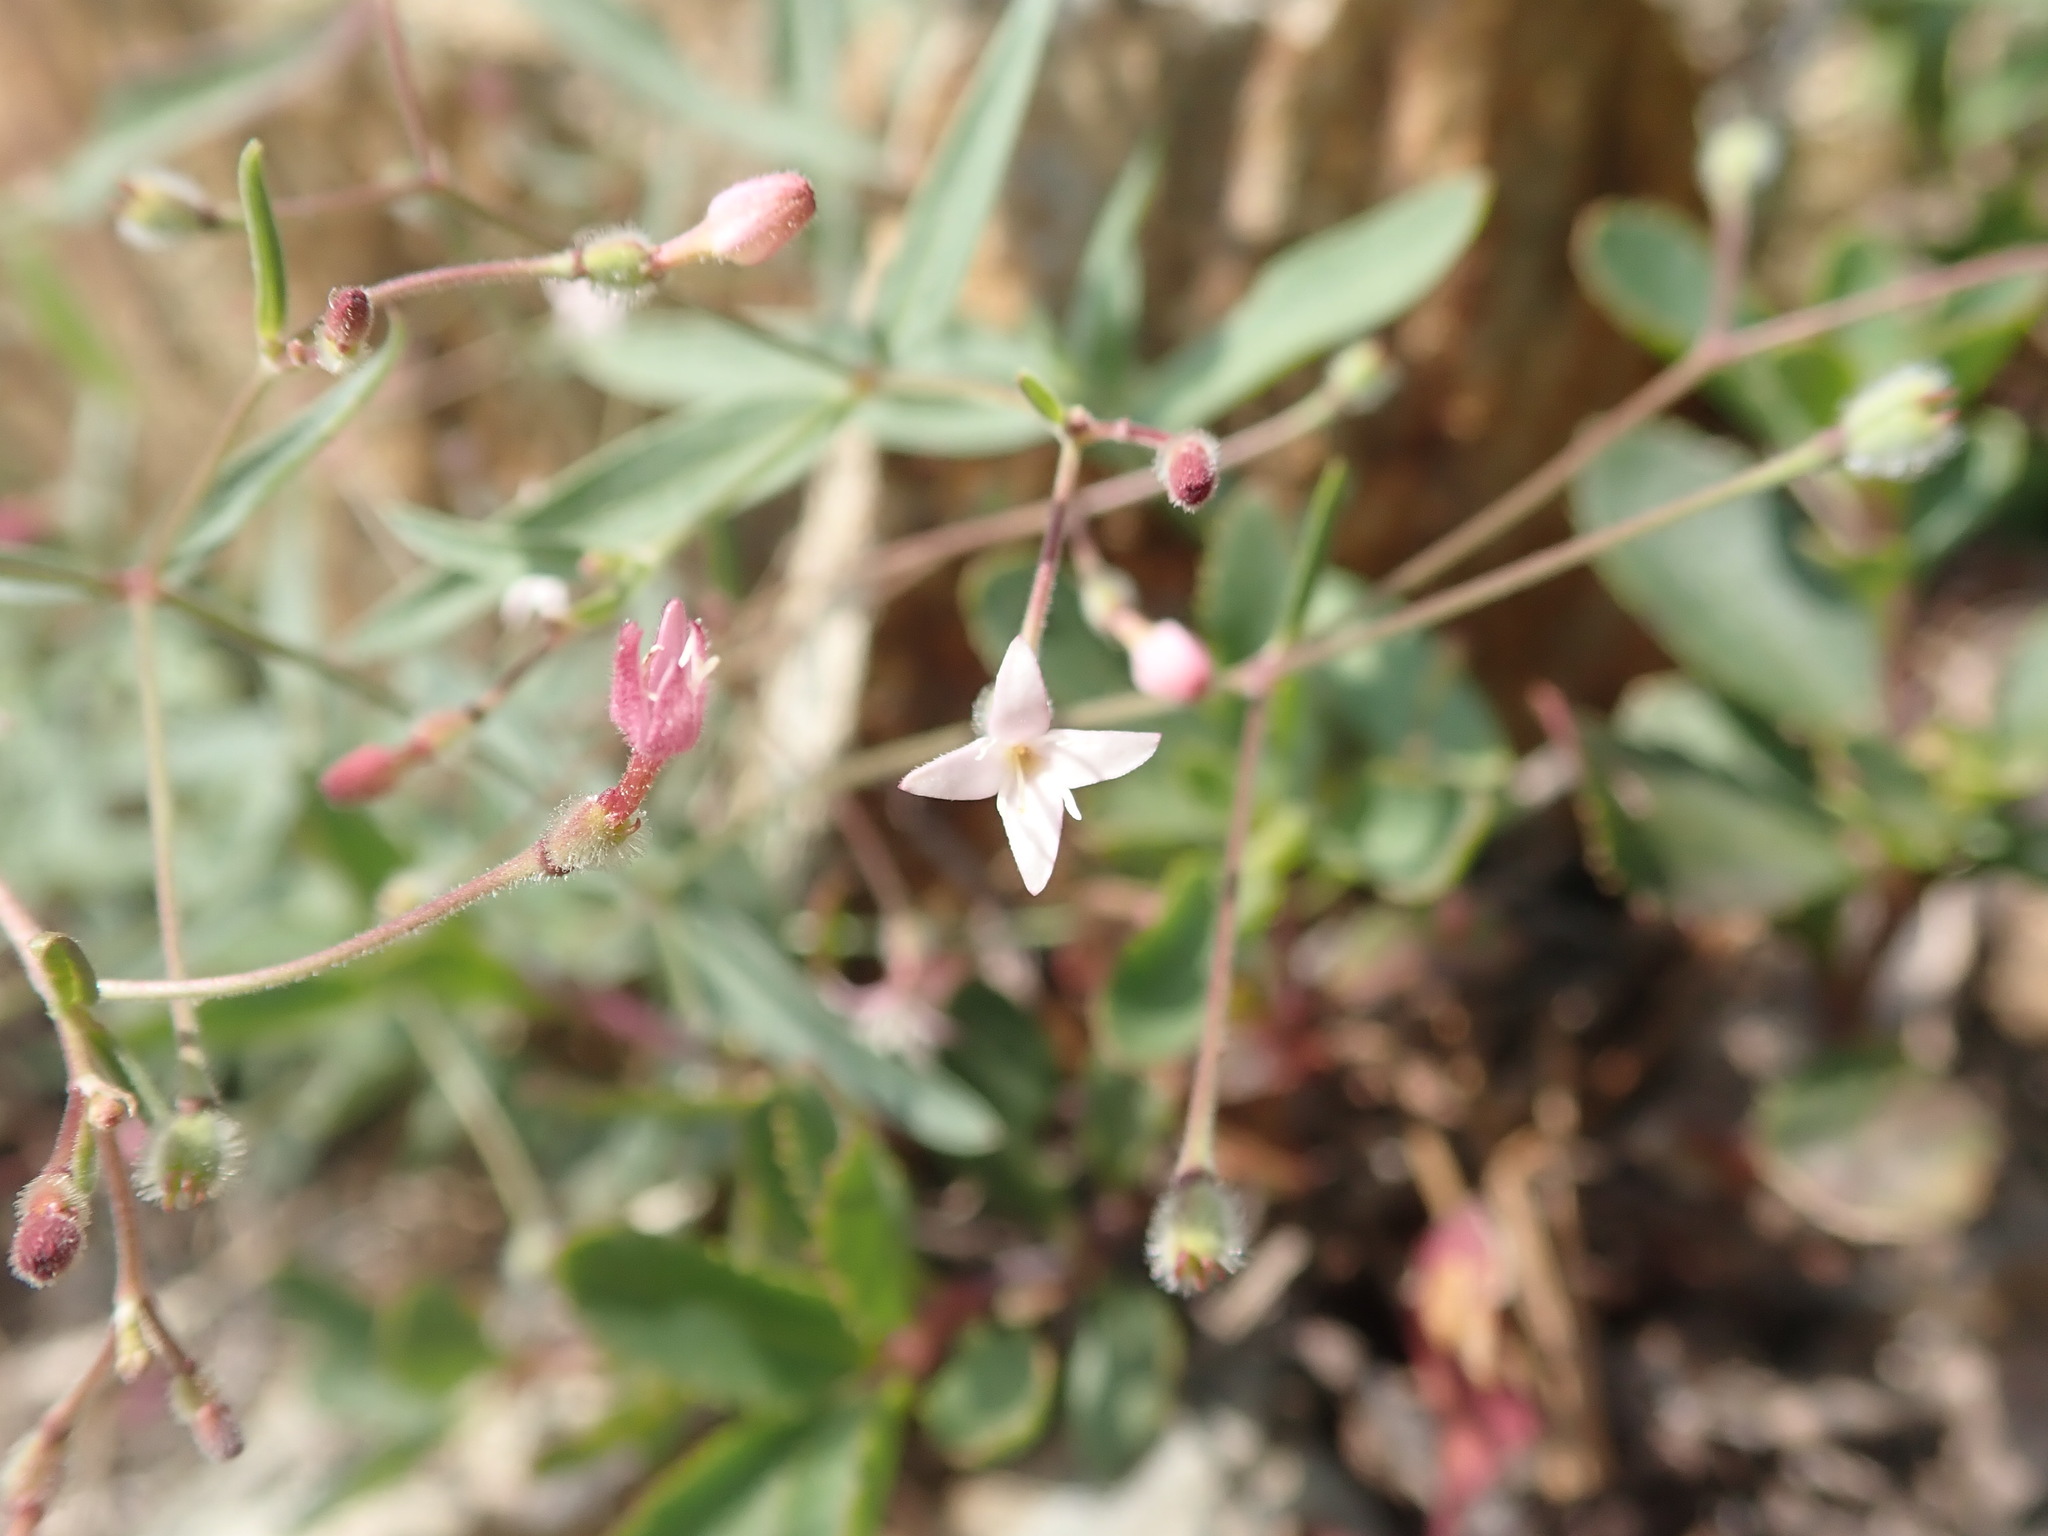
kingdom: Plantae
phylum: Tracheophyta
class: Magnoliopsida
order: Gentianales
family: Rubiaceae
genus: Kelloggia
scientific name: Kelloggia galioides
